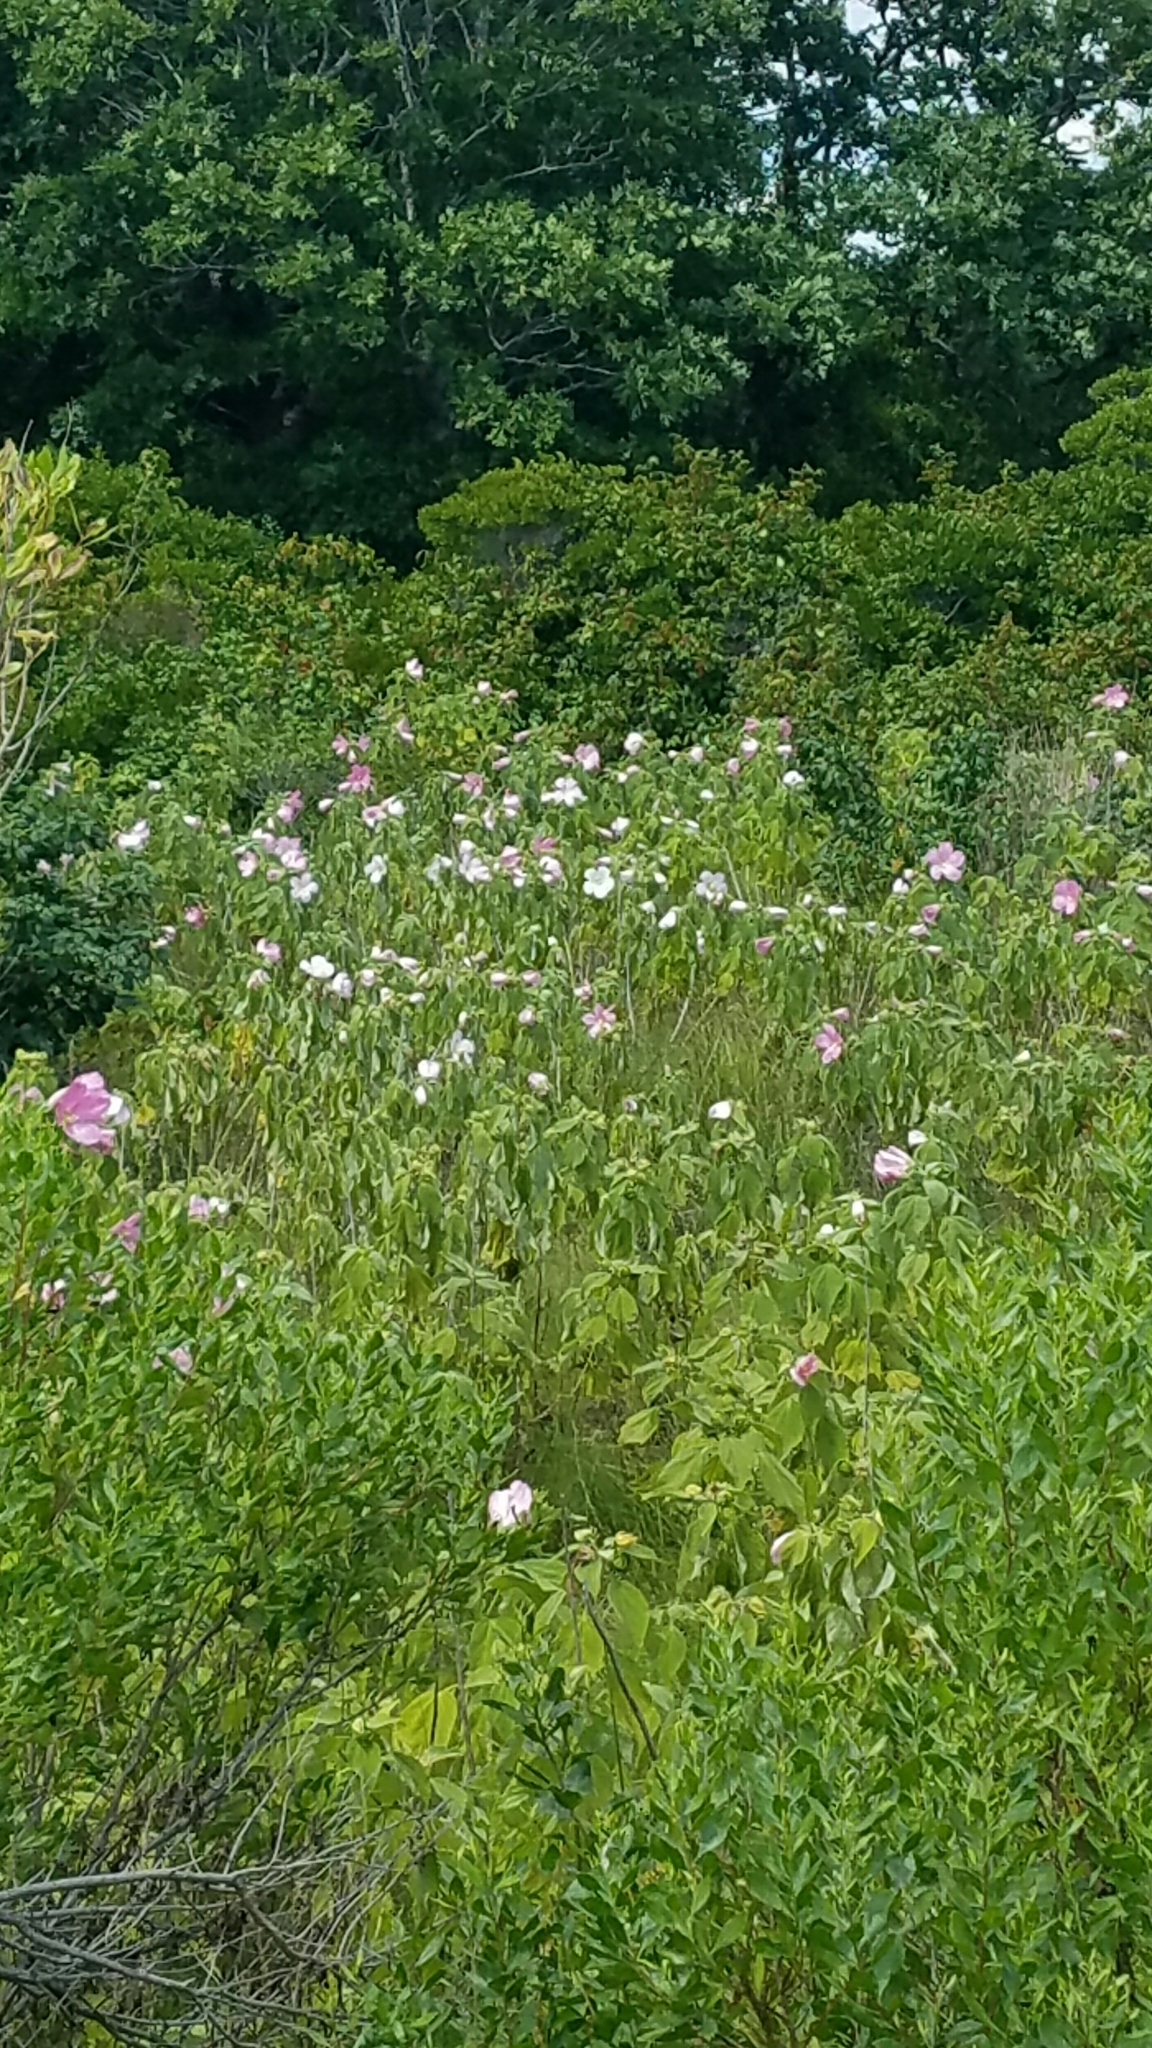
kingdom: Plantae
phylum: Tracheophyta
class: Magnoliopsida
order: Malvales
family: Malvaceae
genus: Hibiscus
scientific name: Hibiscus moscheutos
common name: Common rose-mallow
